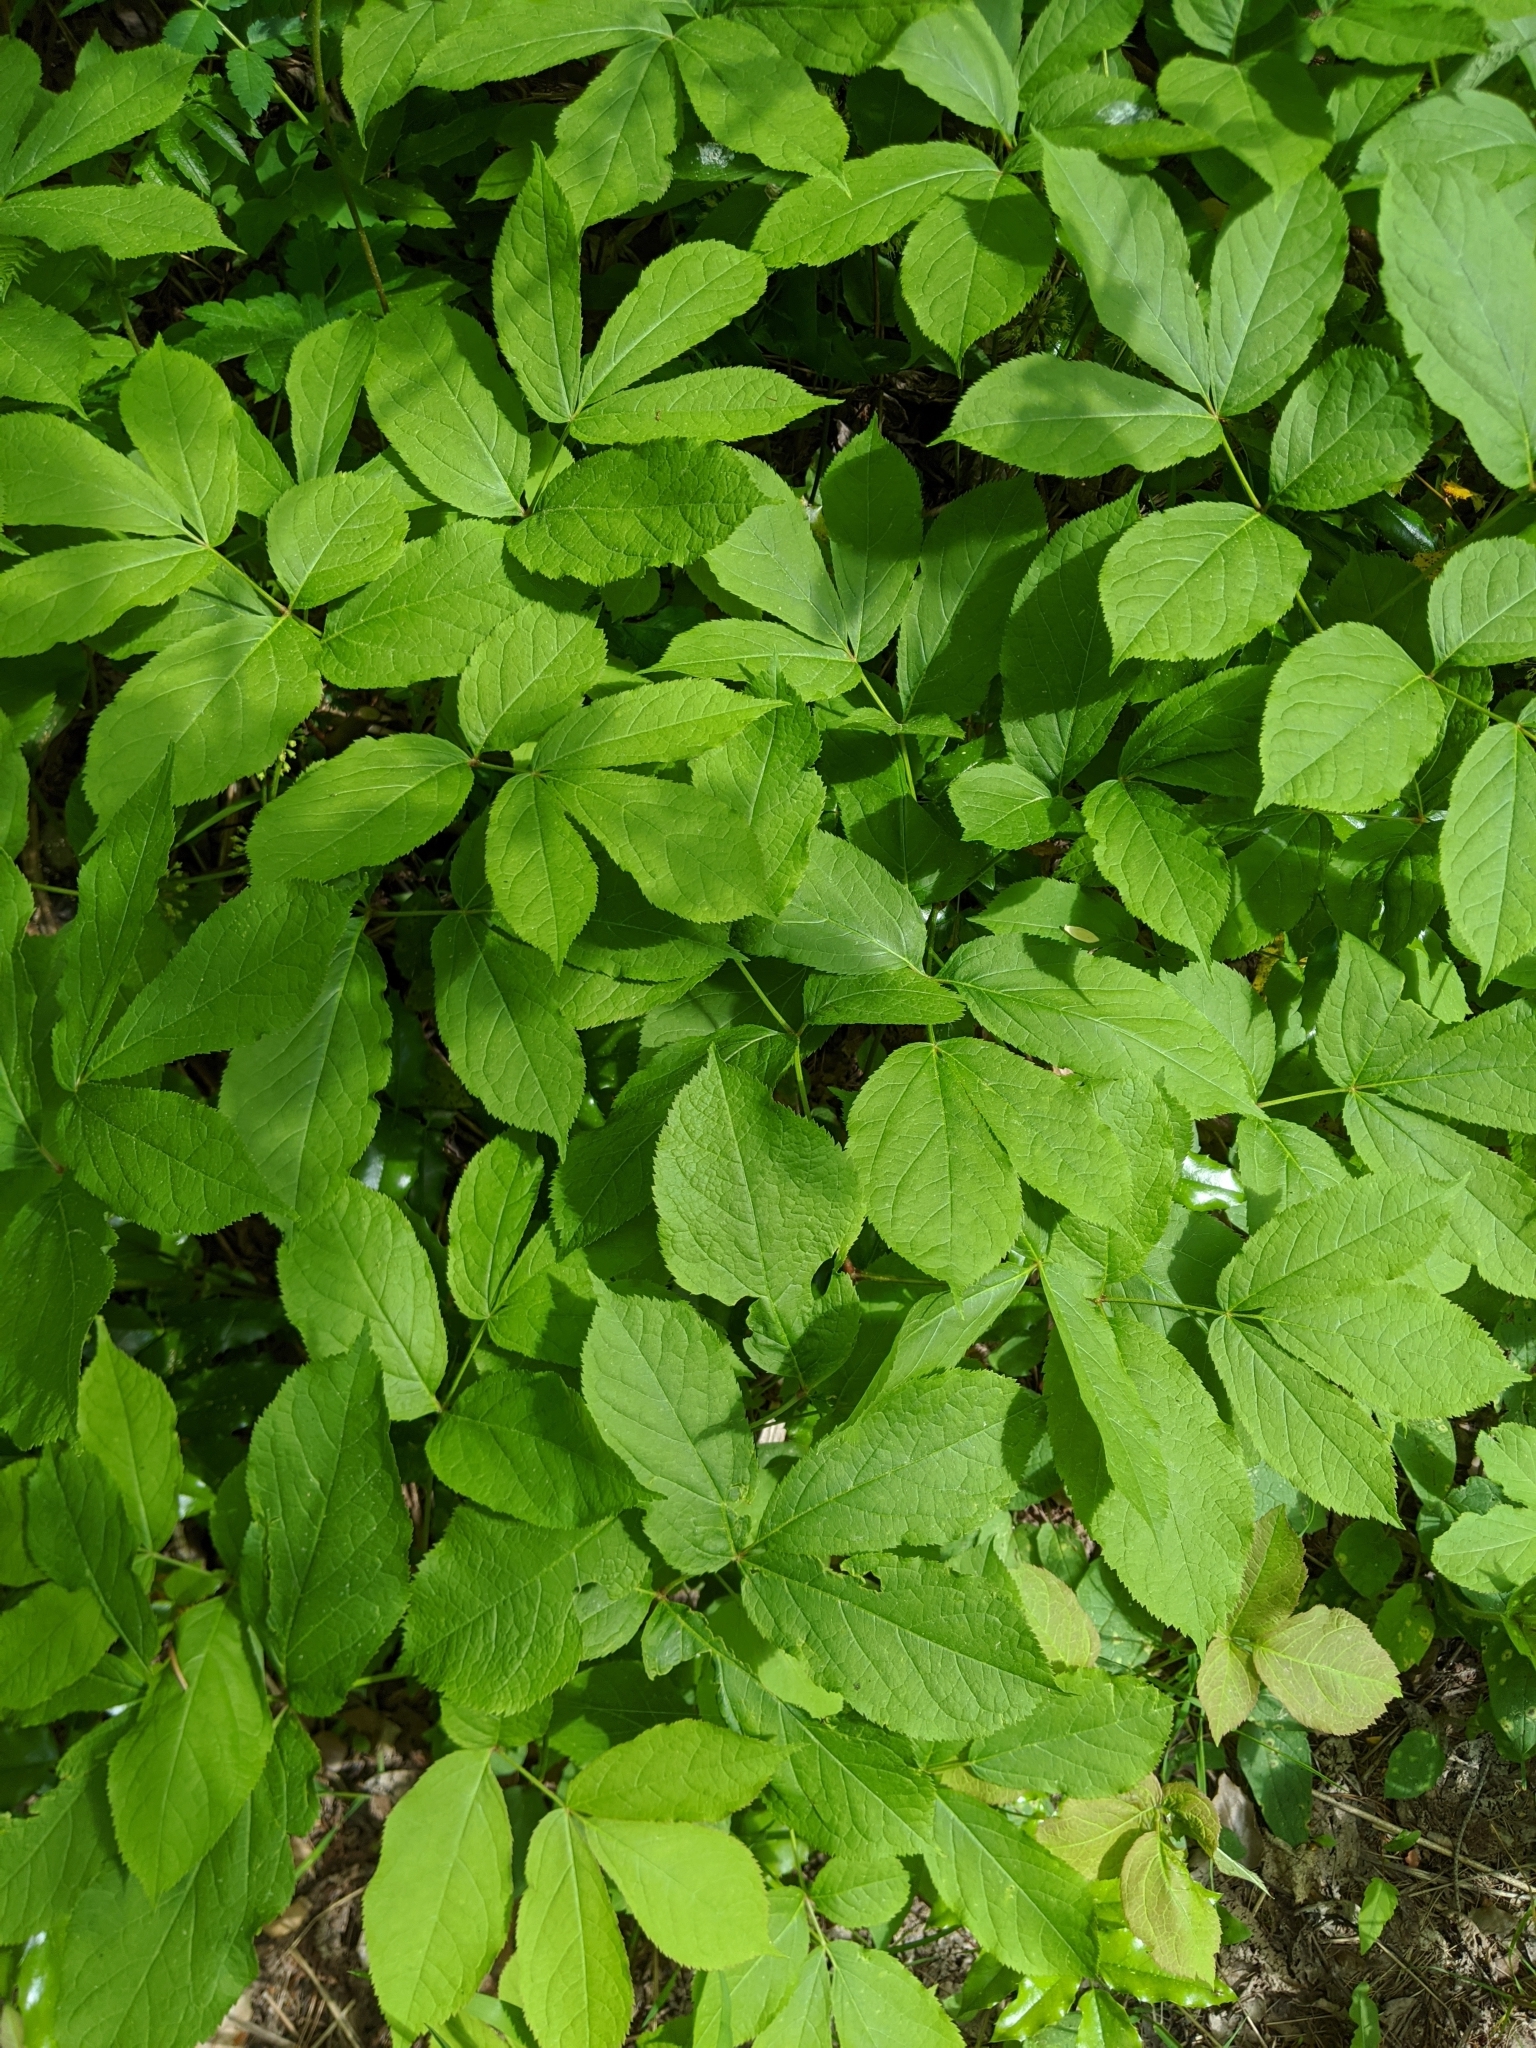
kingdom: Plantae
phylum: Tracheophyta
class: Magnoliopsida
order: Apiales
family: Araliaceae
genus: Aralia
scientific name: Aralia nudicaulis
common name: Wild sarsaparilla
